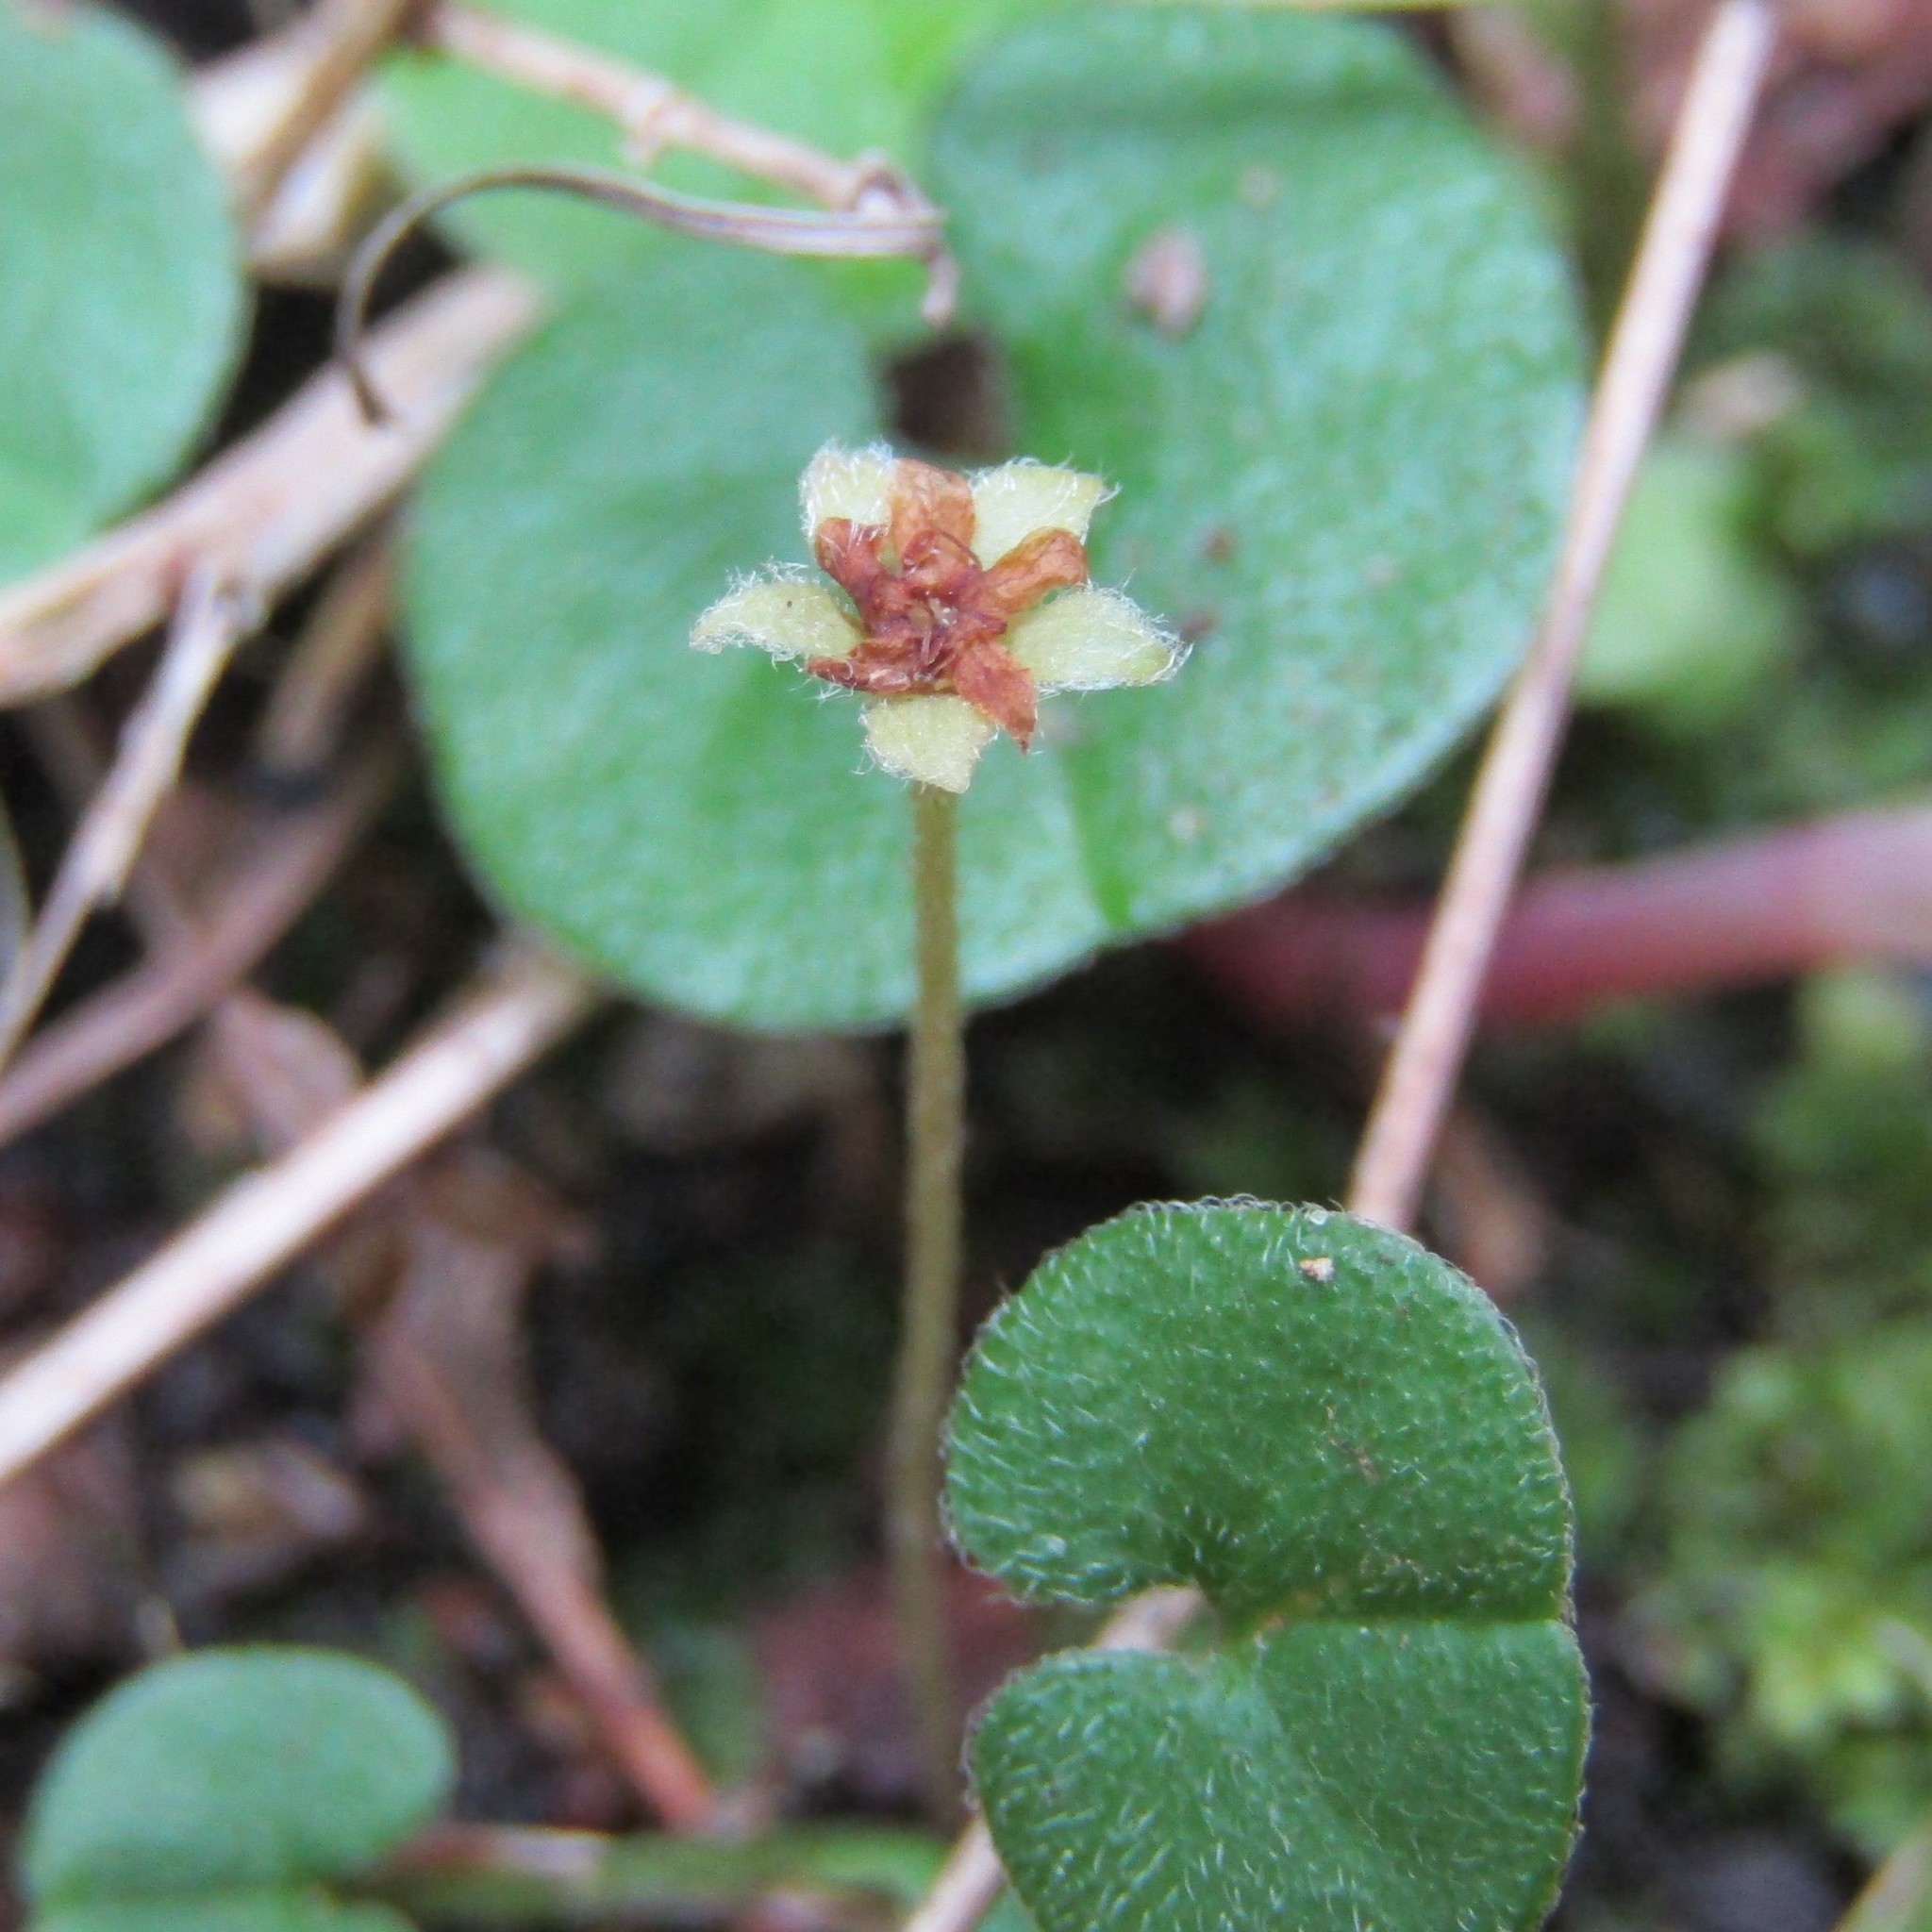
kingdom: Plantae
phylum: Tracheophyta
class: Magnoliopsida
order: Solanales
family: Convolvulaceae
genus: Dichondra
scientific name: Dichondra repens
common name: Kidneyweed
